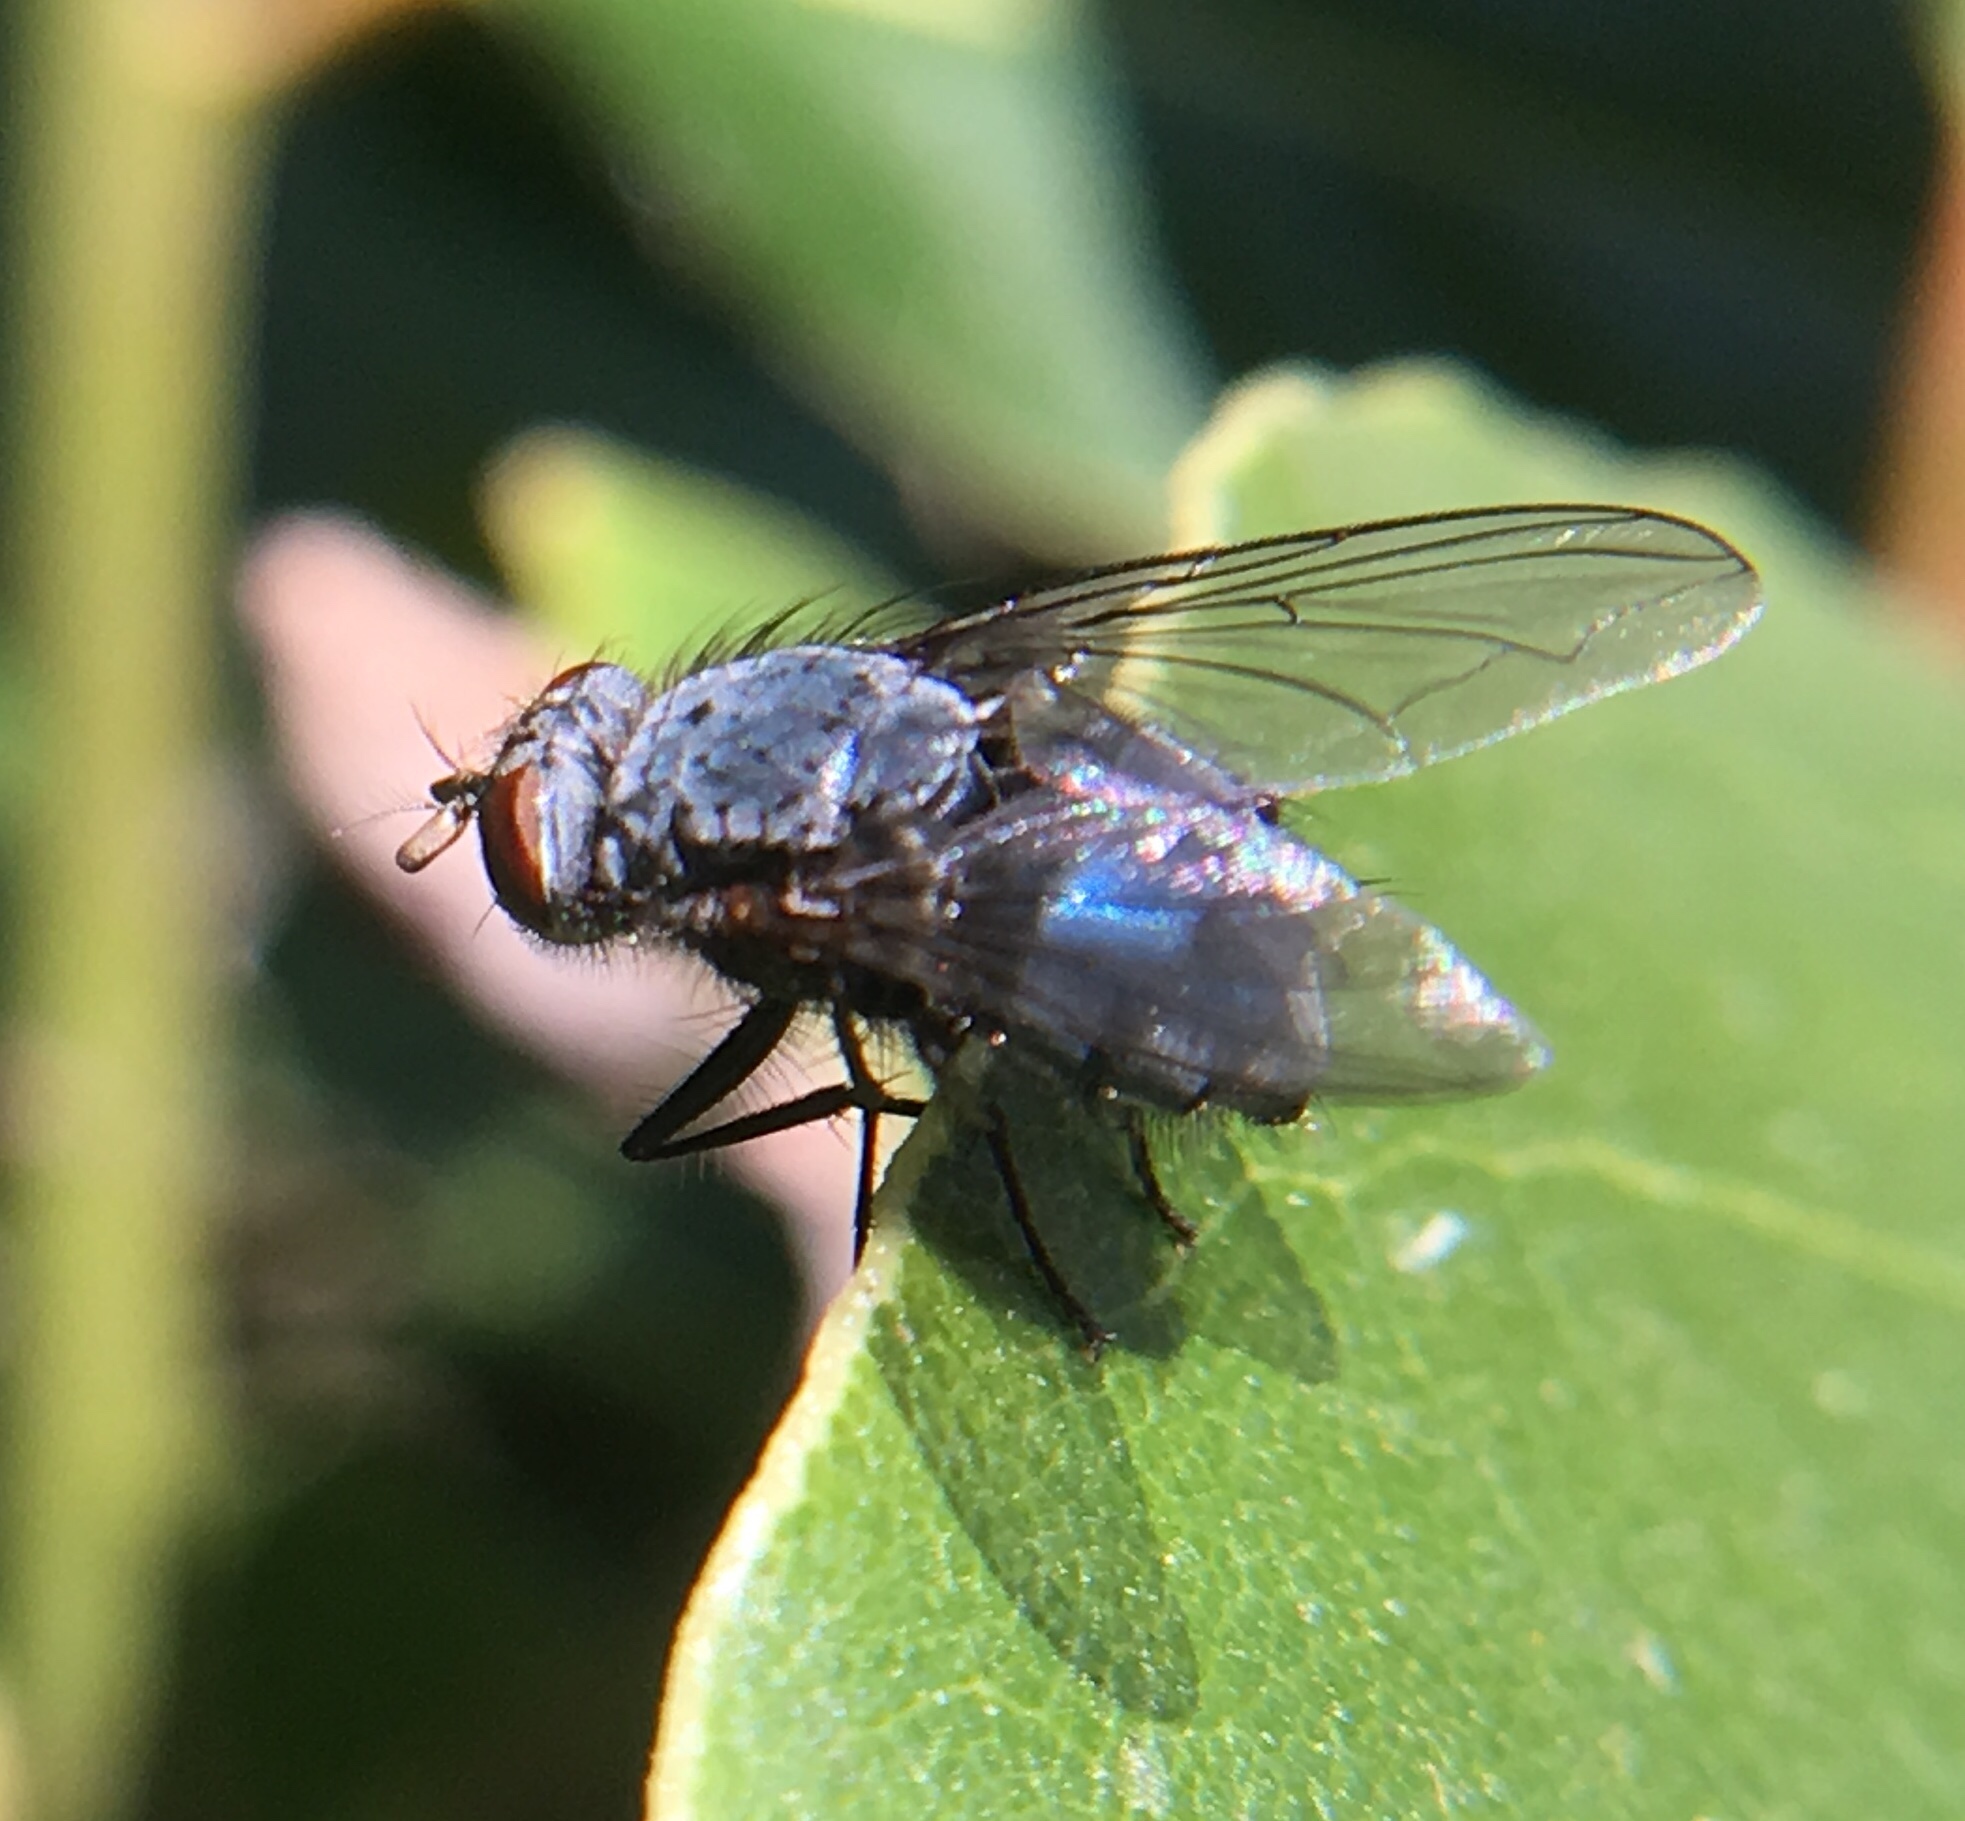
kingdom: Animalia
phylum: Arthropoda
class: Insecta
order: Diptera
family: Calliphoridae
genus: Calliphora
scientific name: Calliphora vicina
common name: Common blow flie
